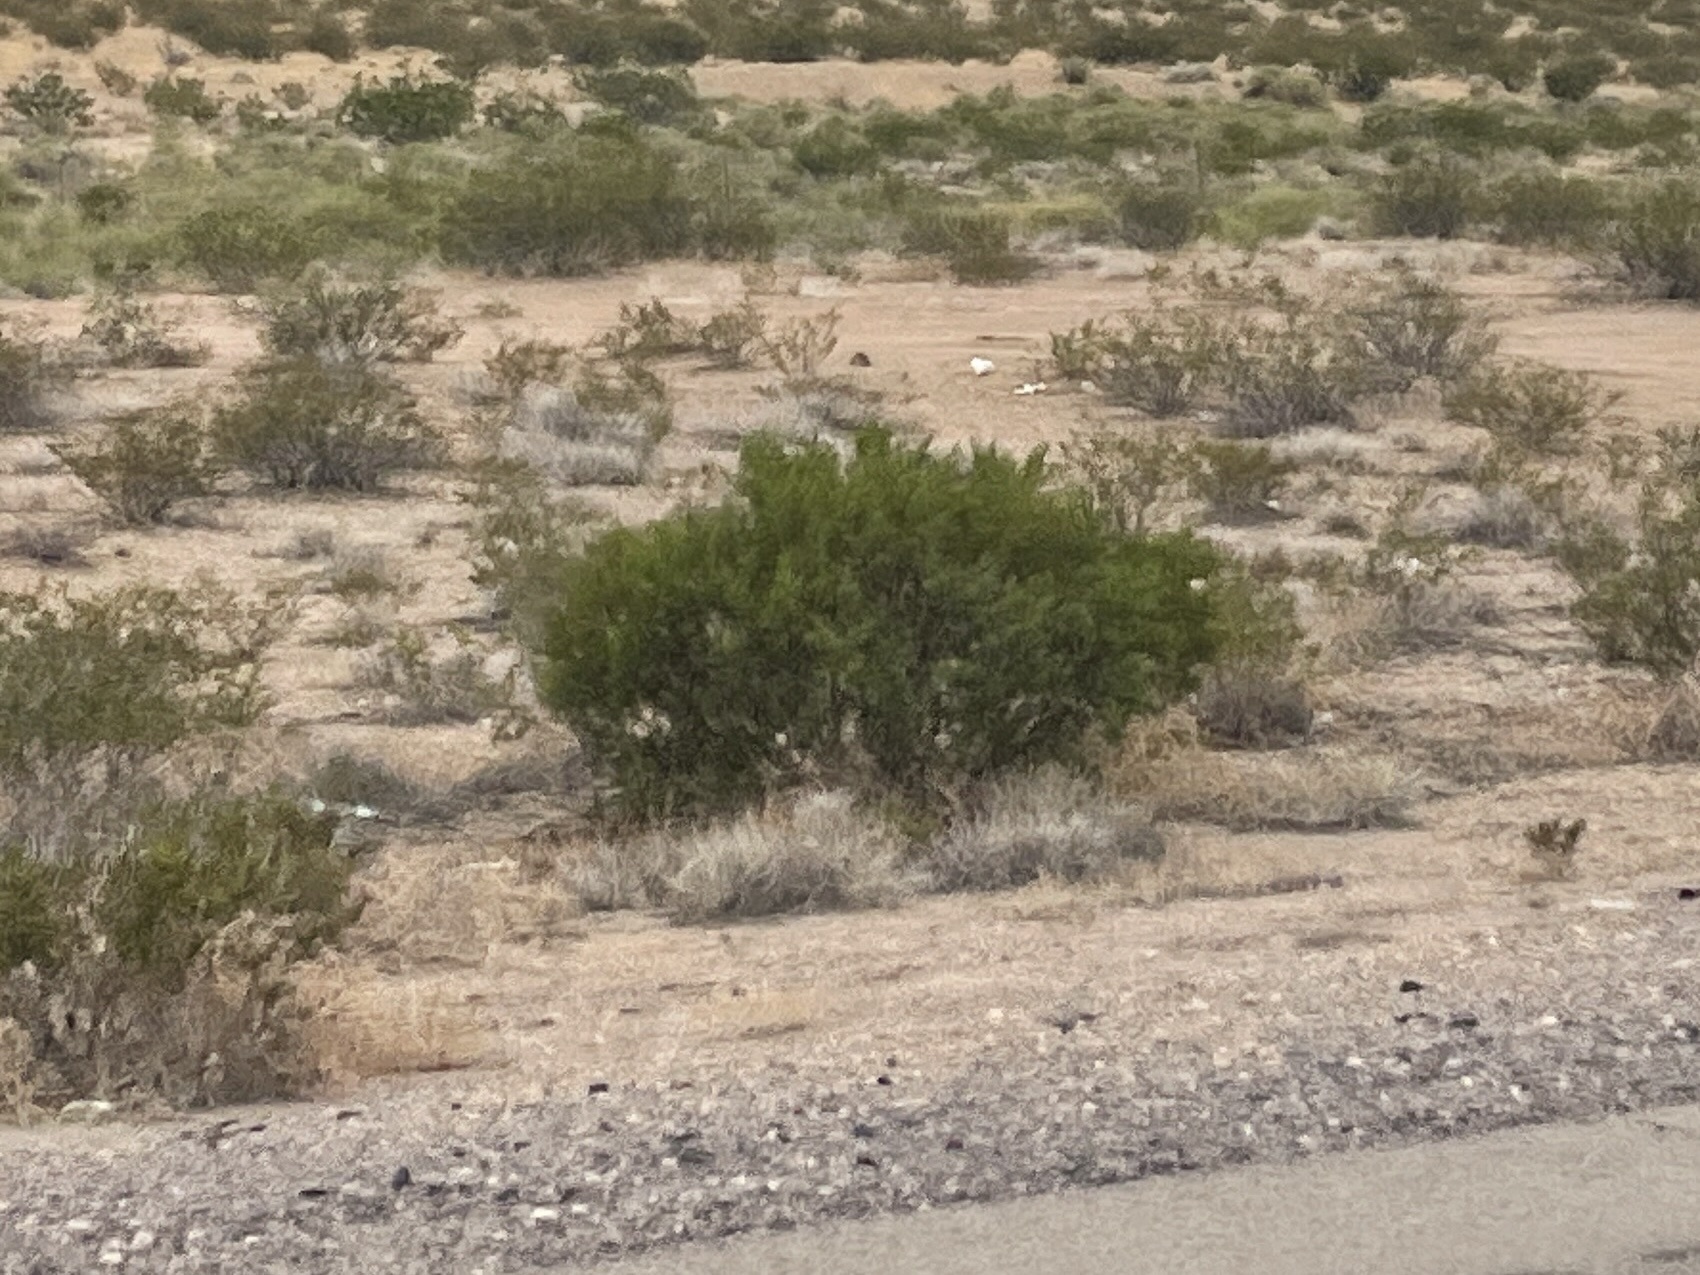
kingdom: Plantae
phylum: Tracheophyta
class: Magnoliopsida
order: Zygophyllales
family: Zygophyllaceae
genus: Larrea
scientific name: Larrea tridentata
